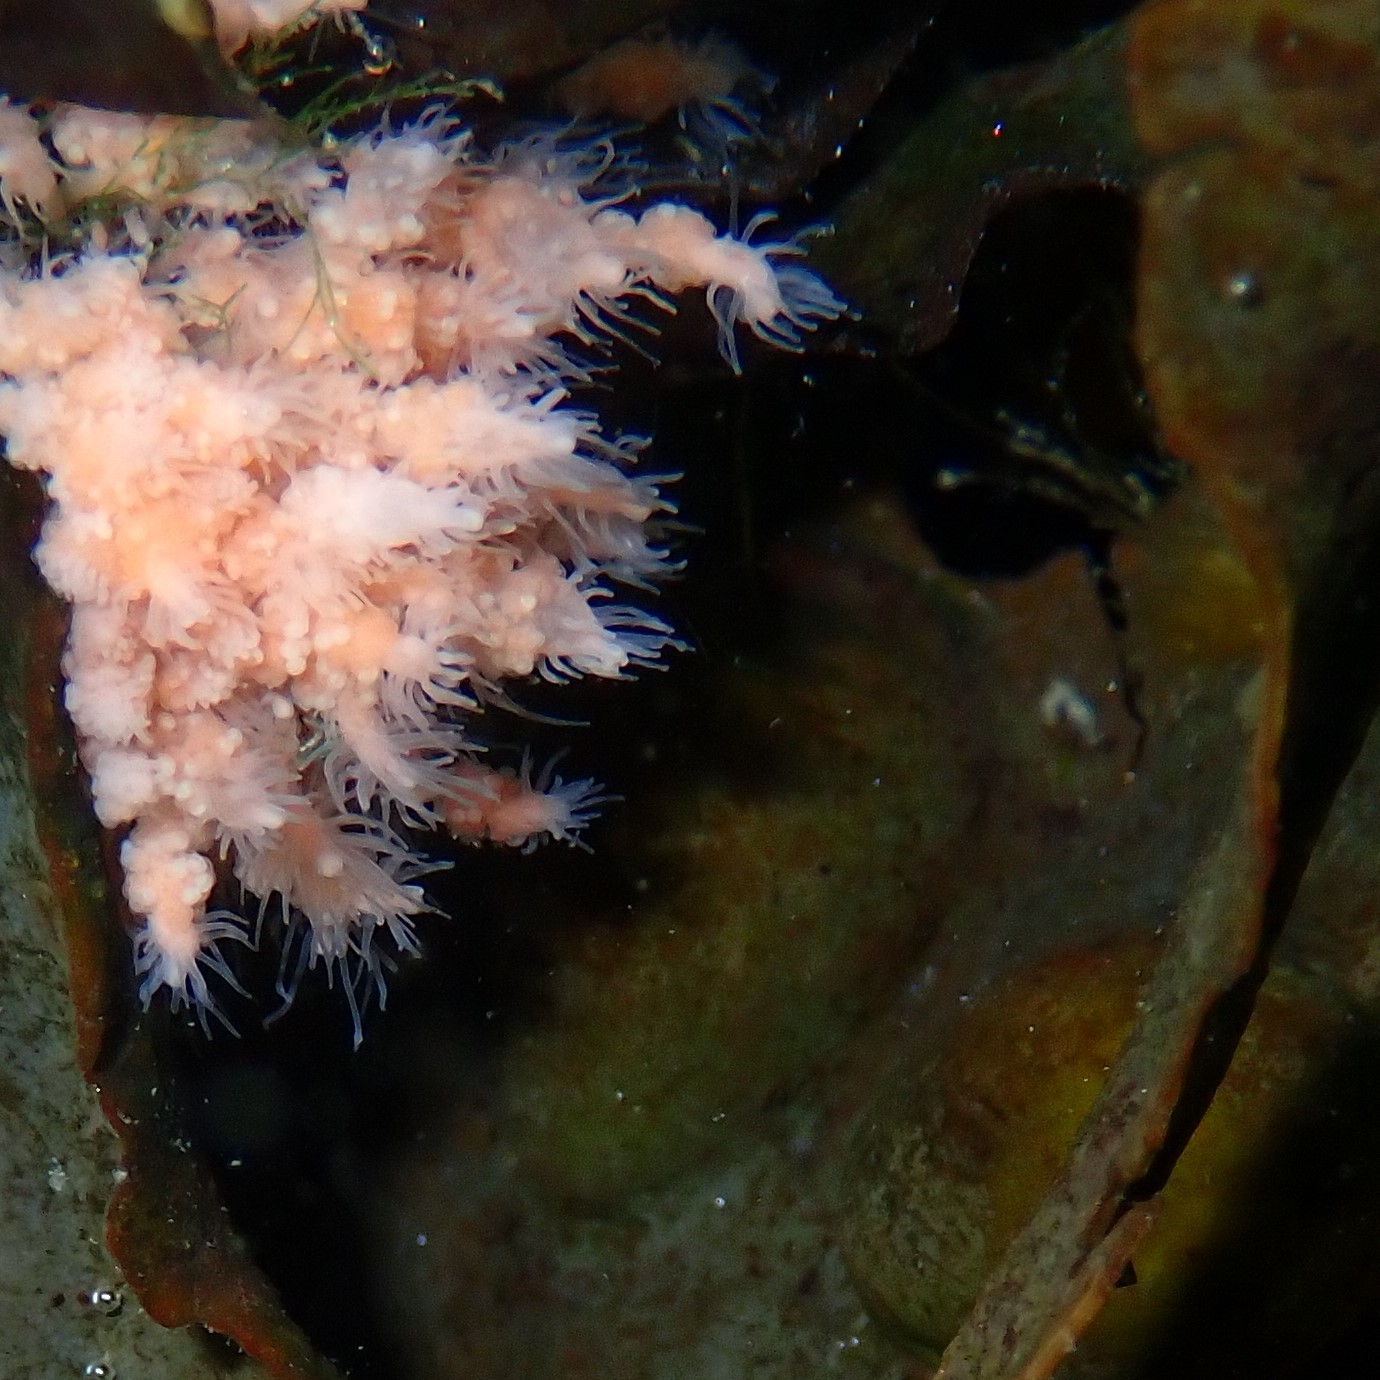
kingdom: Animalia
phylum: Cnidaria
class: Hydrozoa
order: Anthoathecata
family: Hydractiniidae
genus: Clava
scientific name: Clava multicornis
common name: Club-headed hydroid
